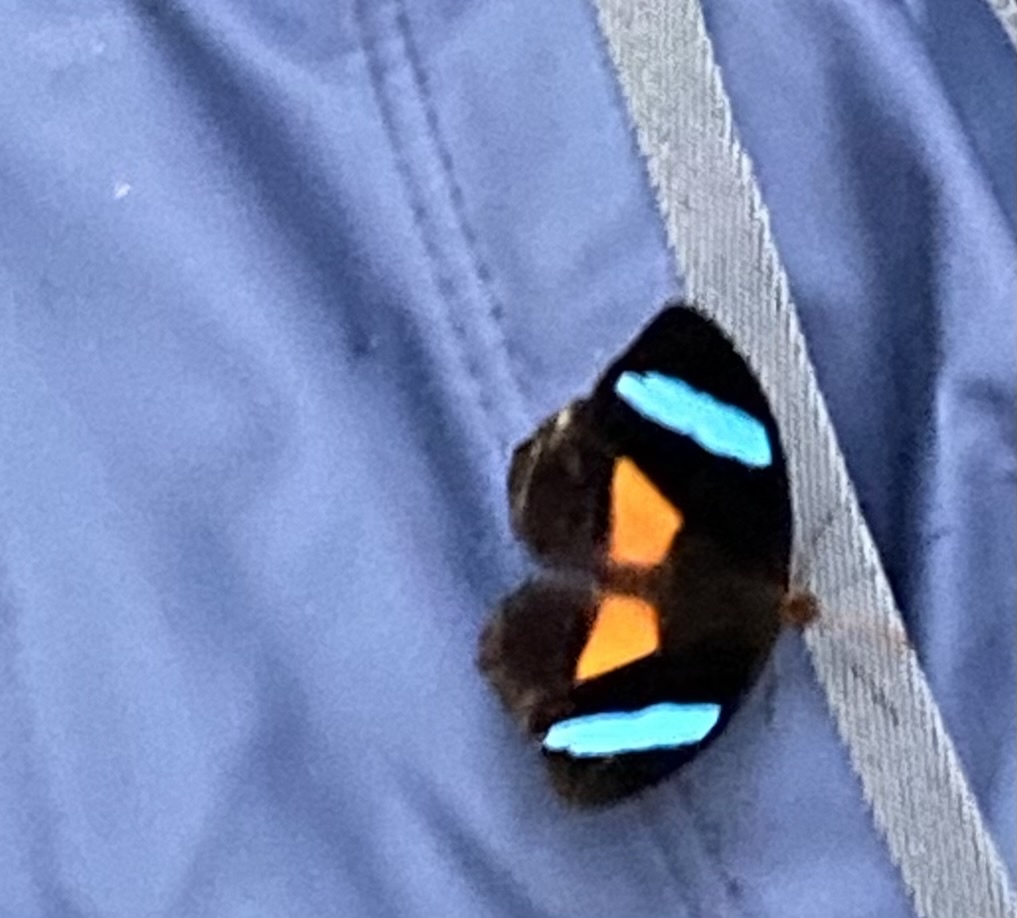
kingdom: Animalia
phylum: Arthropoda
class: Insecta
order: Lepidoptera
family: Nymphalidae
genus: Nessaea
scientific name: Nessaea obrinus
